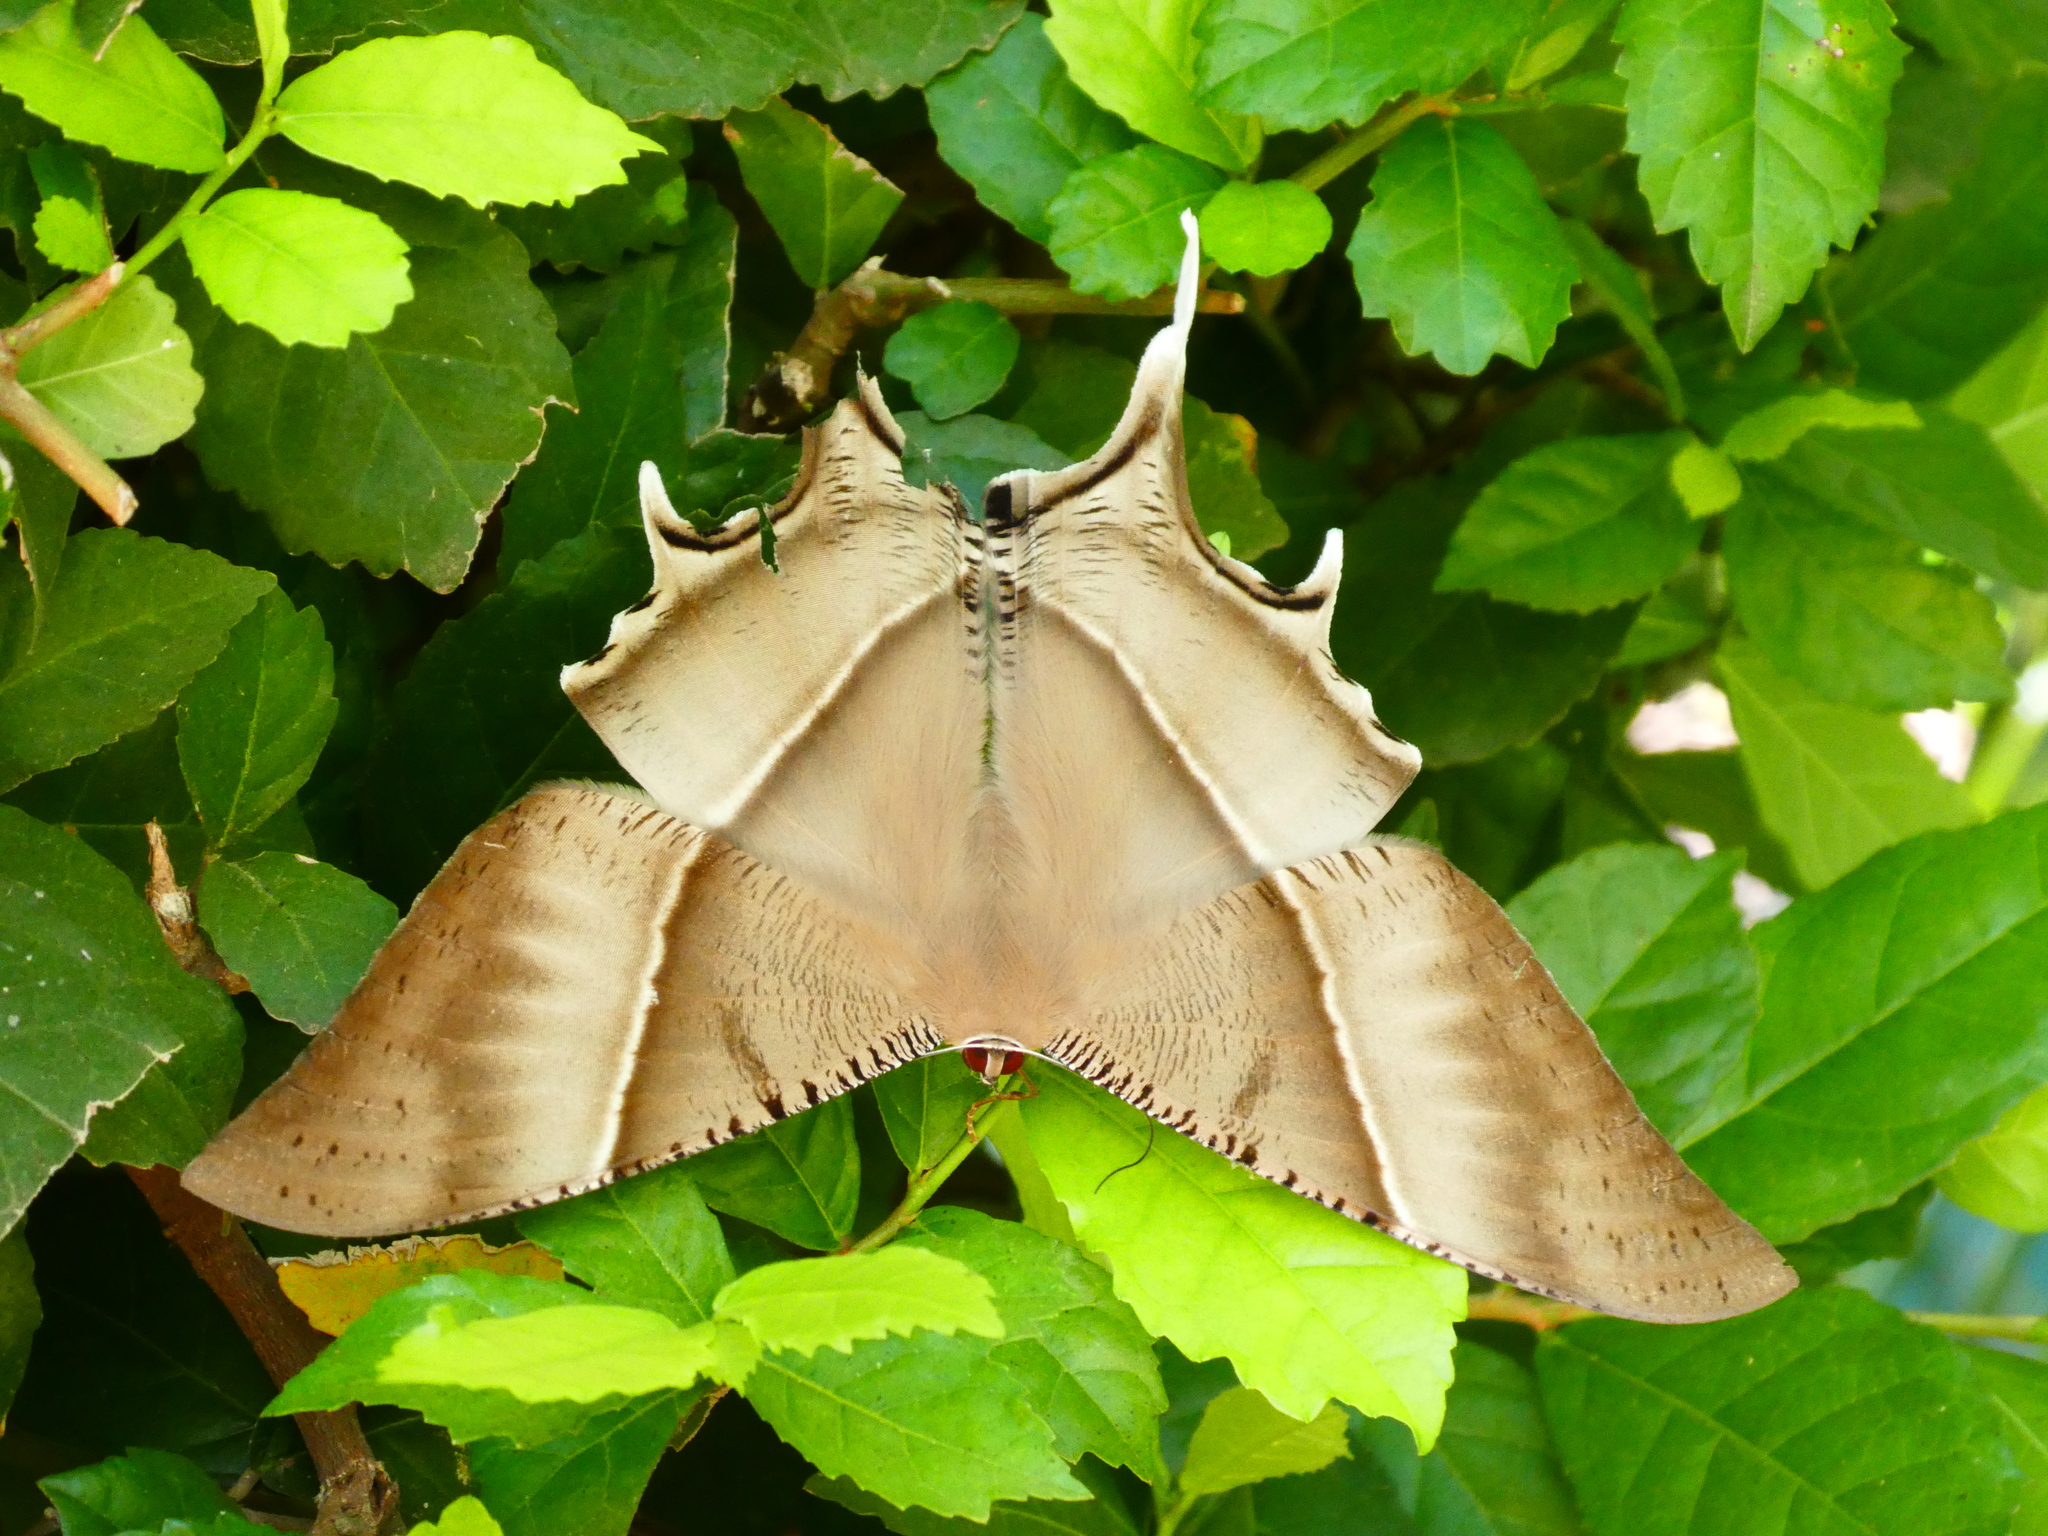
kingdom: Animalia
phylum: Arthropoda
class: Insecta
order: Lepidoptera
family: Uraniidae
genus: Lyssa
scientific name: Lyssa zampa
